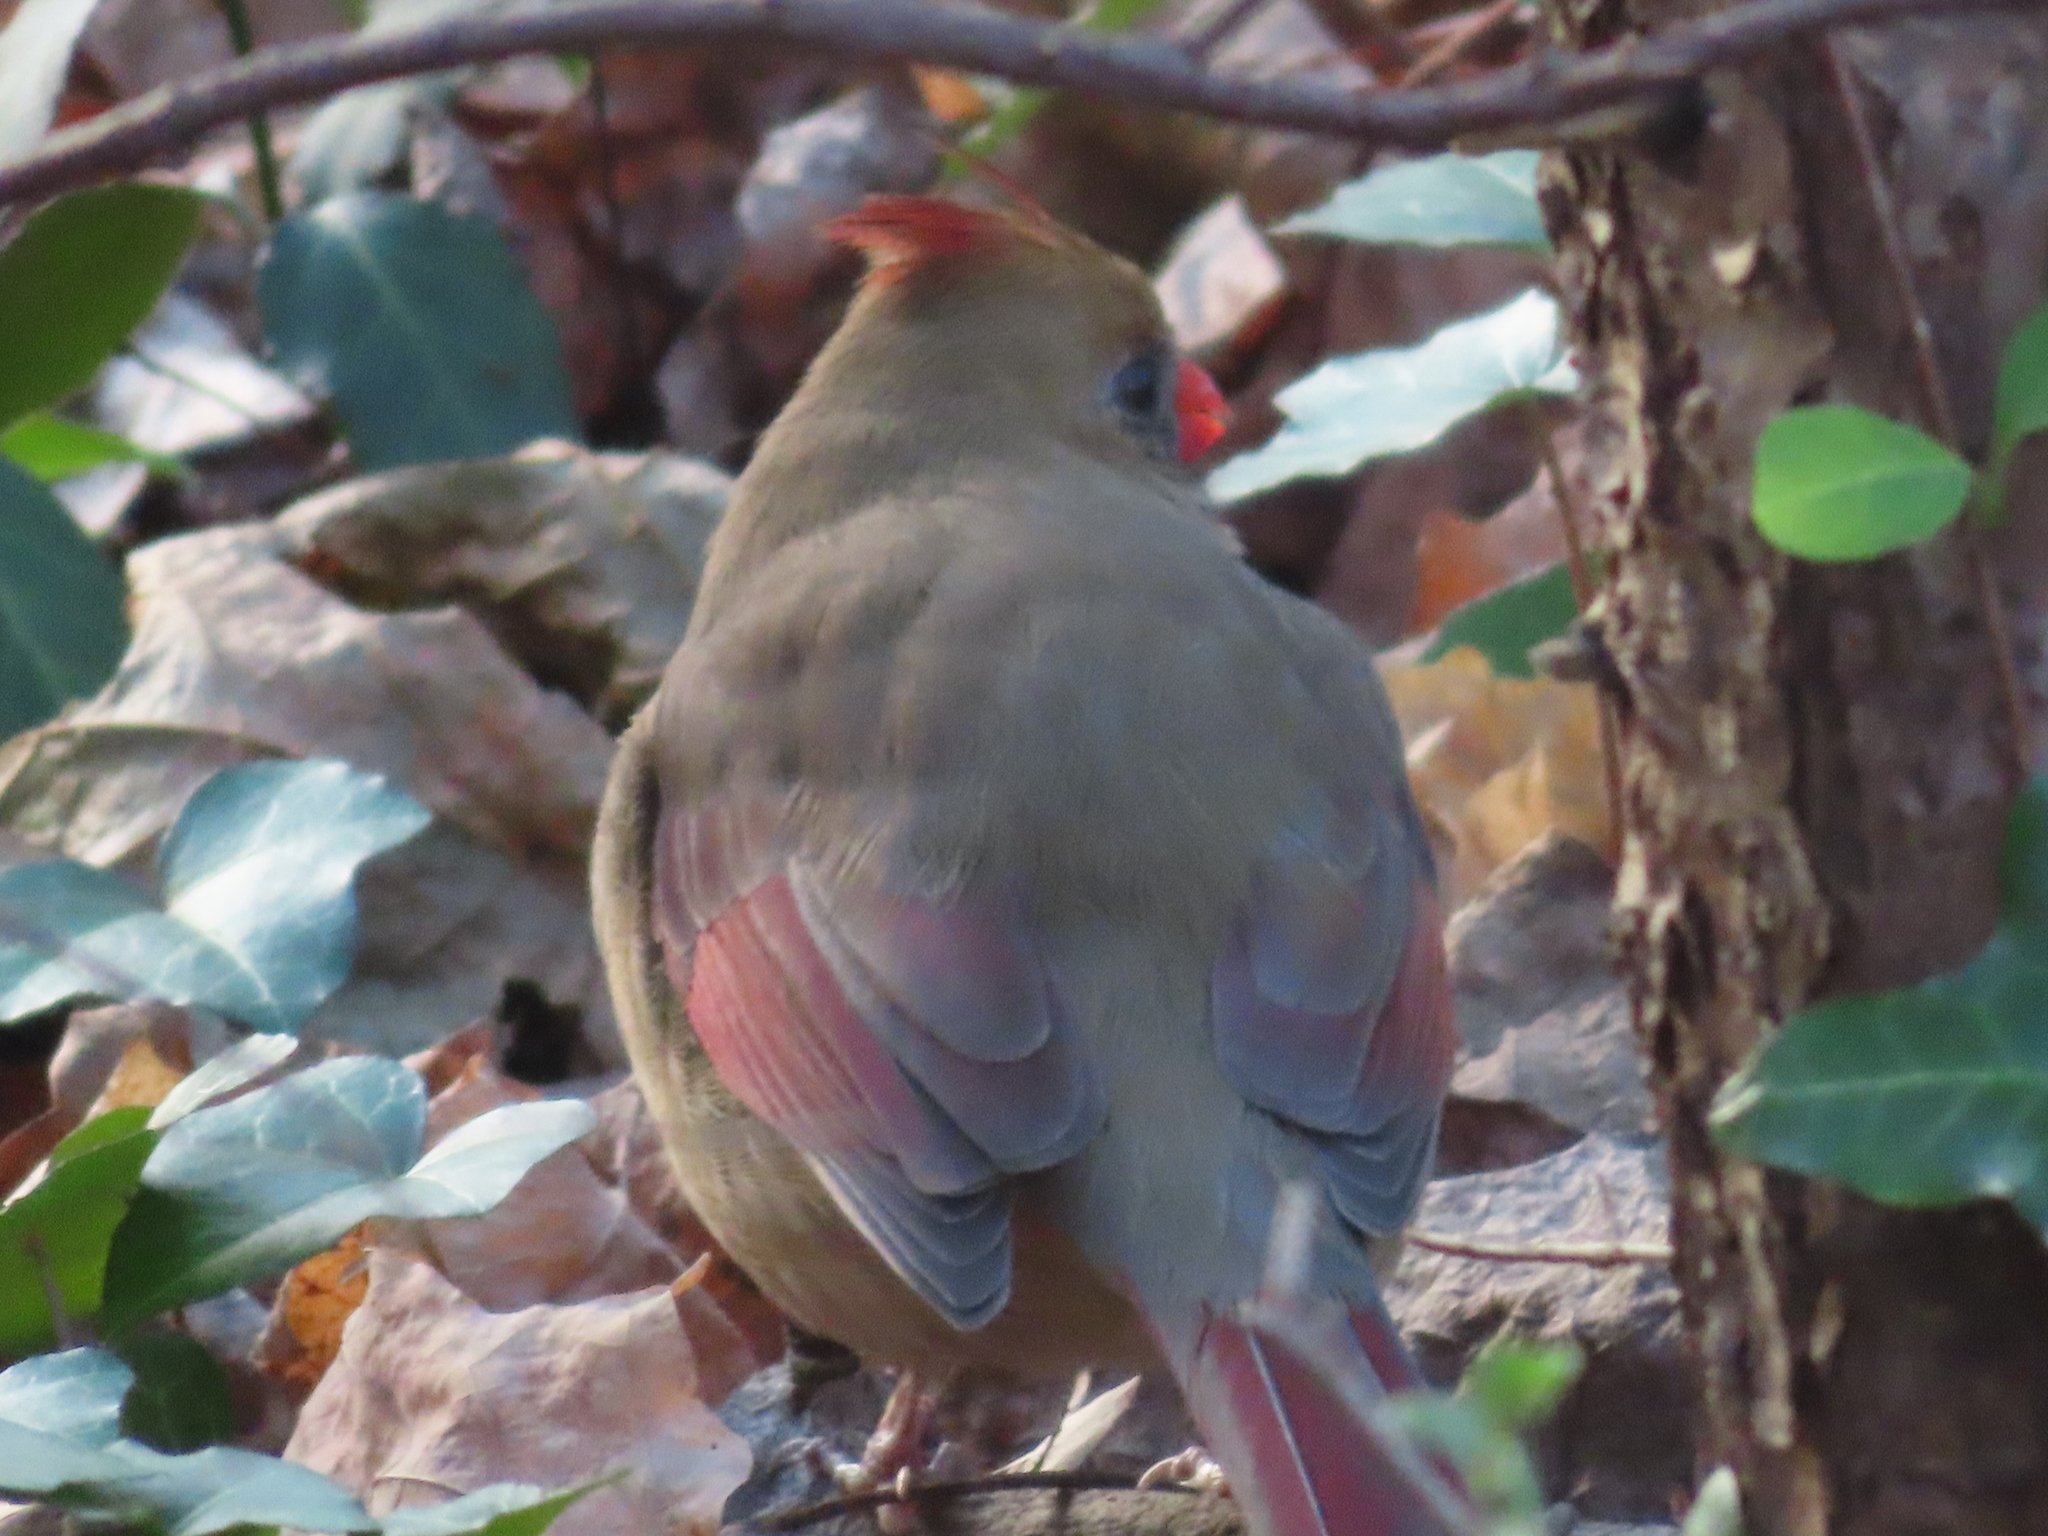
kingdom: Animalia
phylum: Chordata
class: Aves
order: Passeriformes
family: Cardinalidae
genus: Cardinalis
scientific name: Cardinalis cardinalis
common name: Northern cardinal
